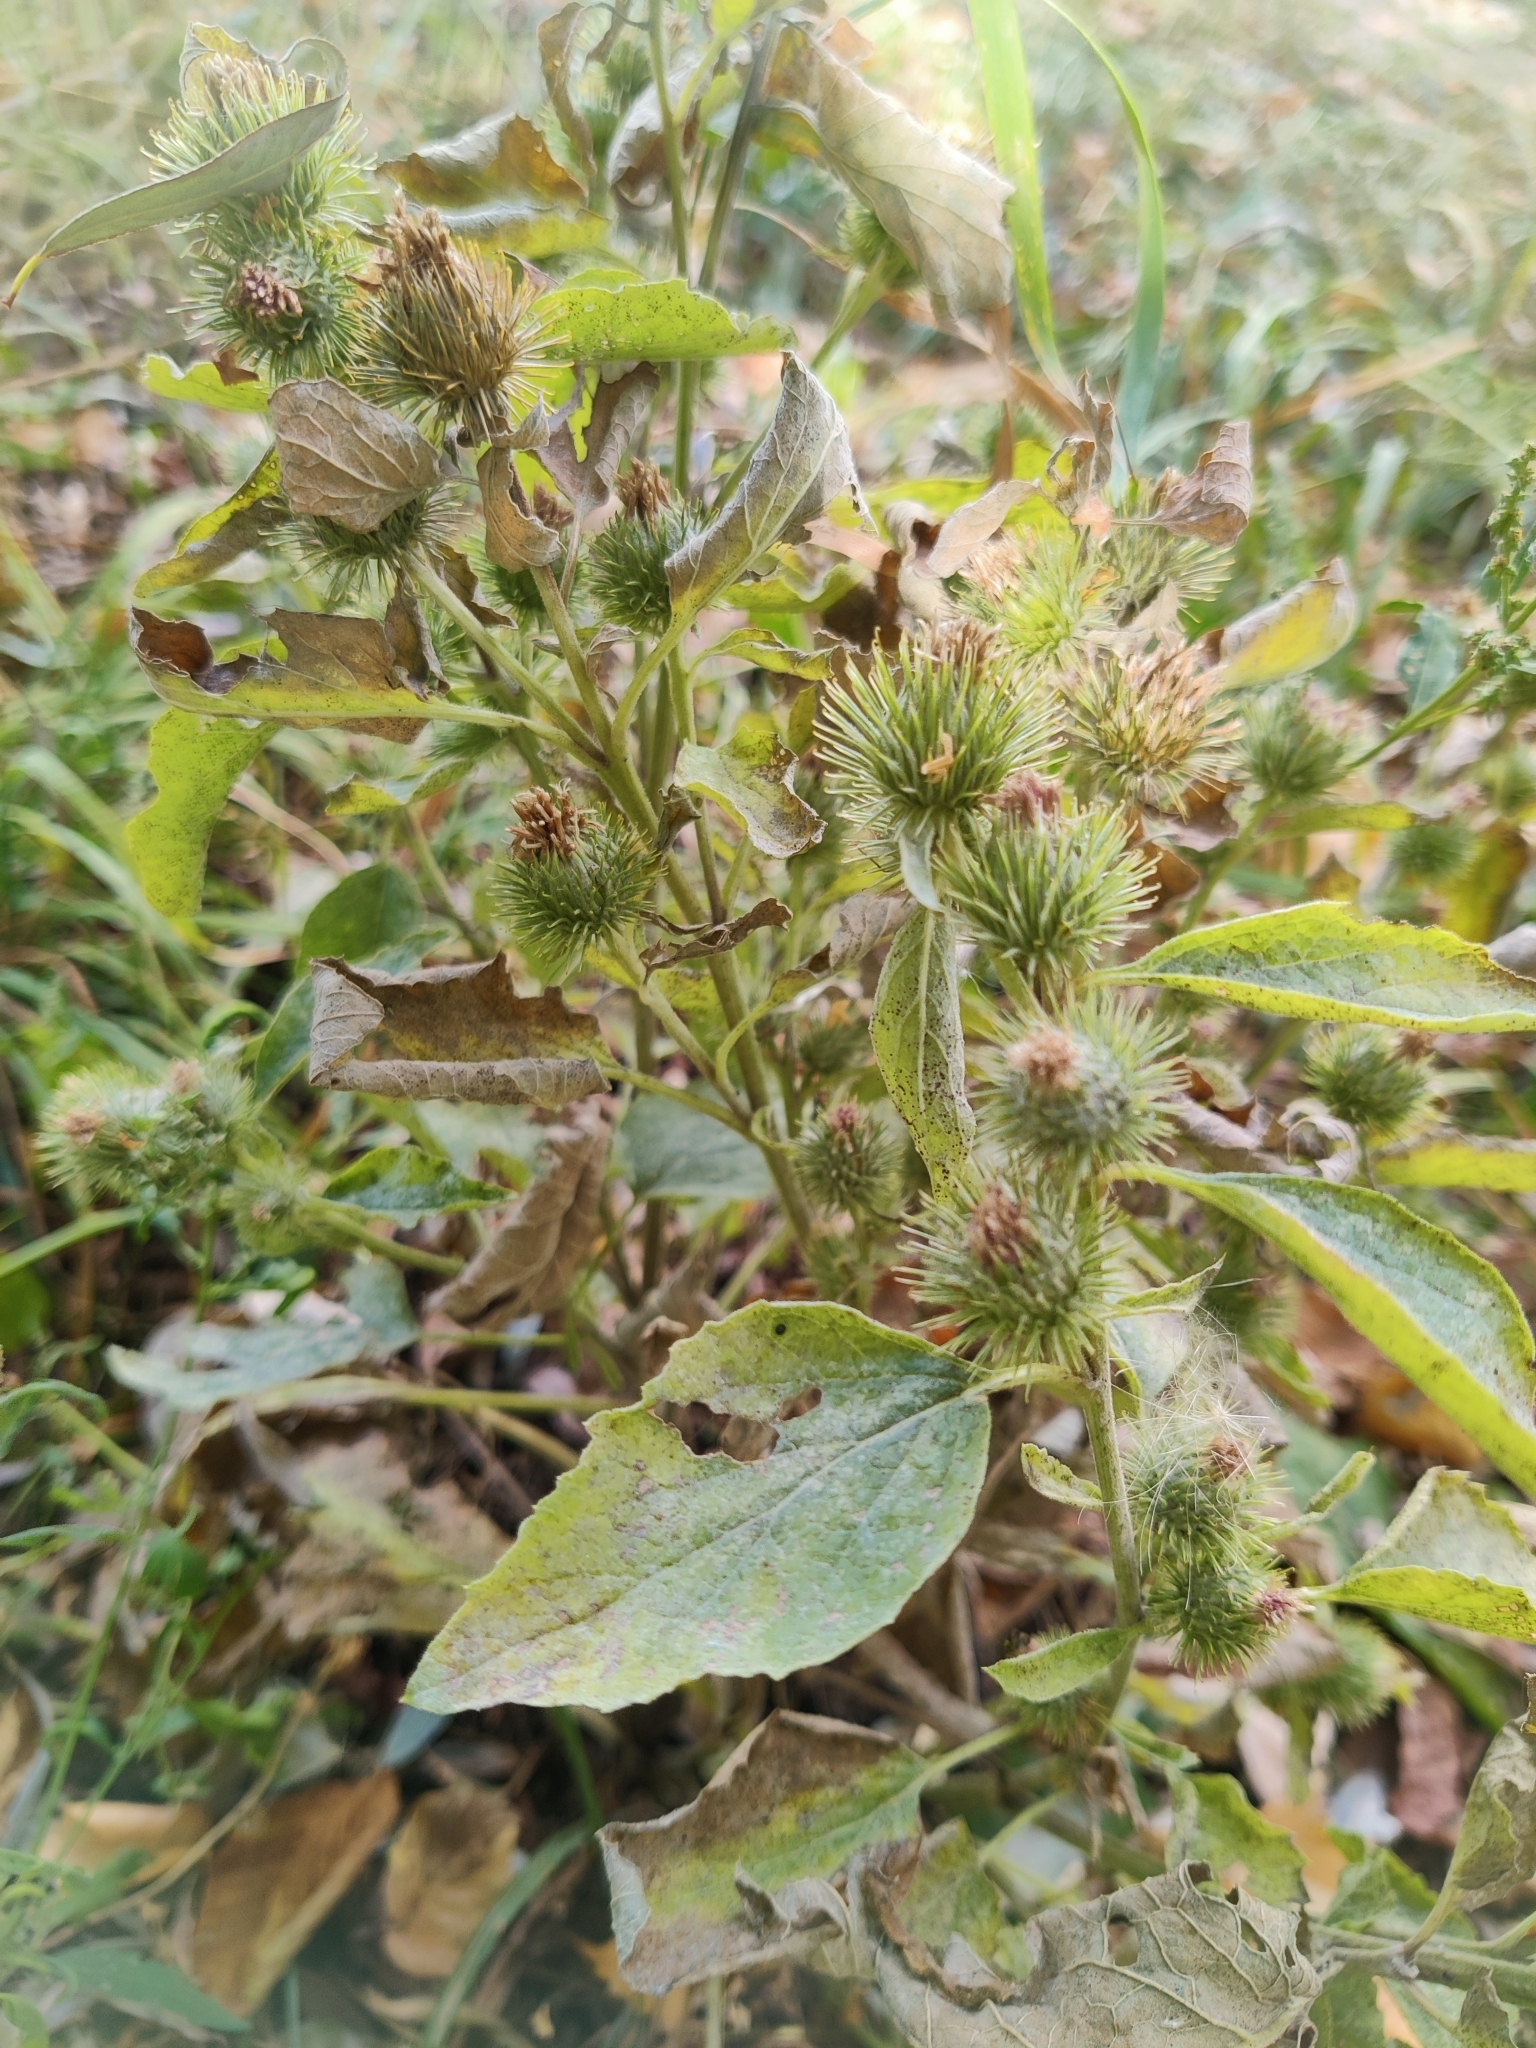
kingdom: Plantae
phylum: Tracheophyta
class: Magnoliopsida
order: Asterales
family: Asteraceae
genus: Arctium
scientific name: Arctium minus
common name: Lesser burdock
